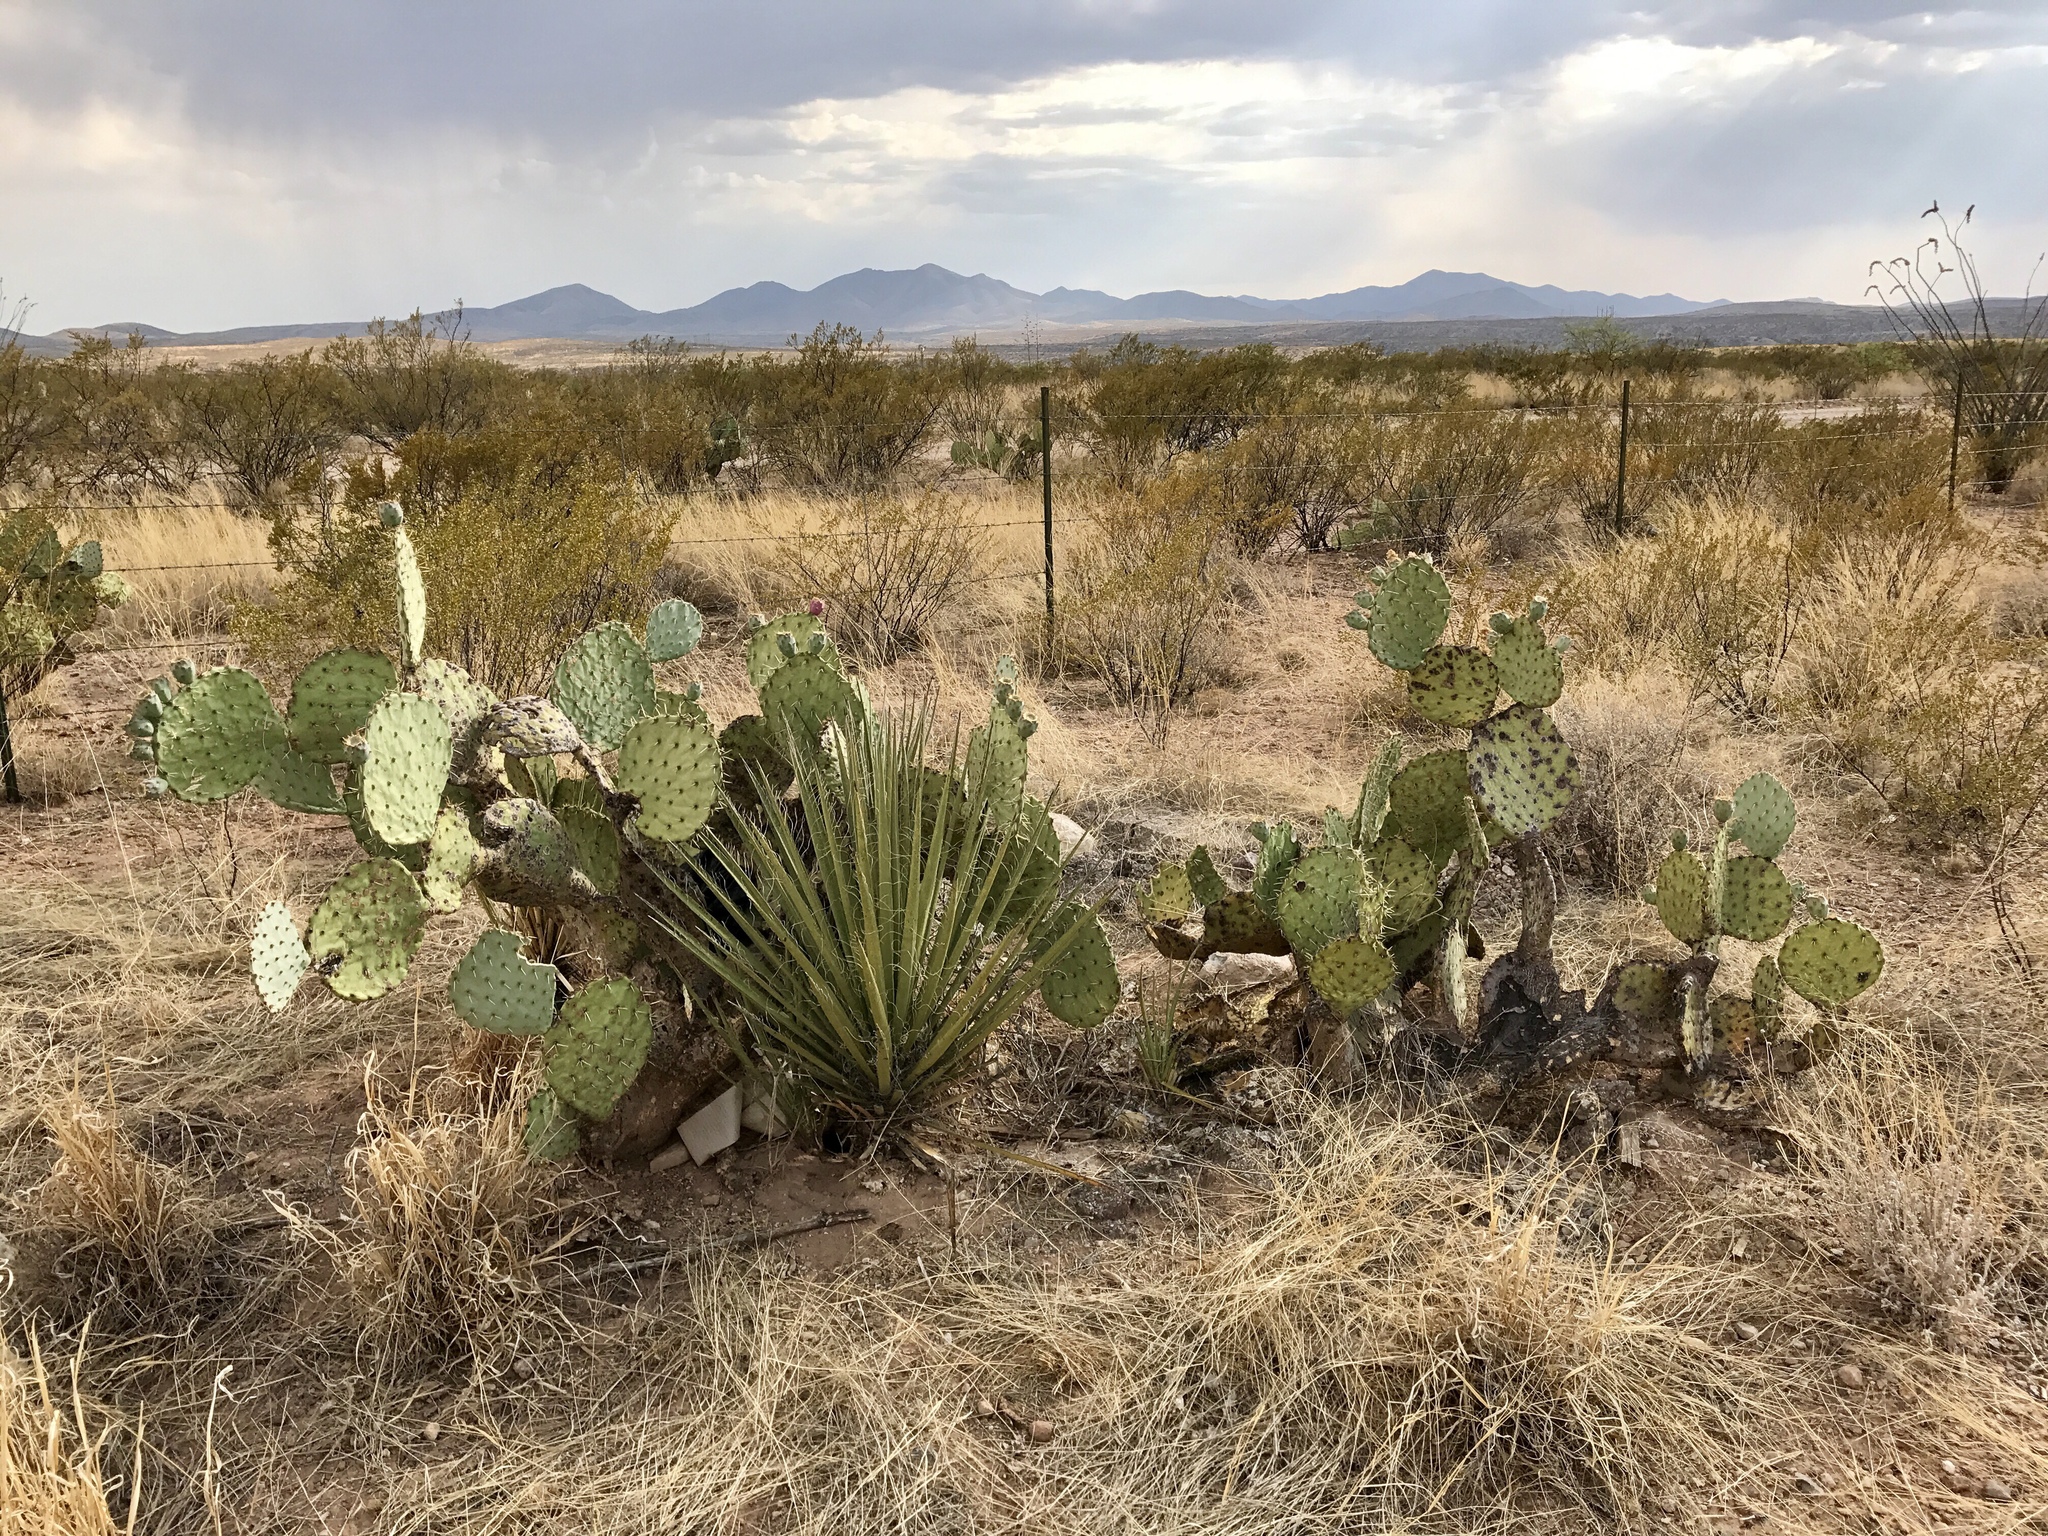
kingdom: Plantae
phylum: Tracheophyta
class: Magnoliopsida
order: Caryophyllales
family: Cactaceae
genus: Opuntia
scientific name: Opuntia engelmannii
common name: Cactus-apple
